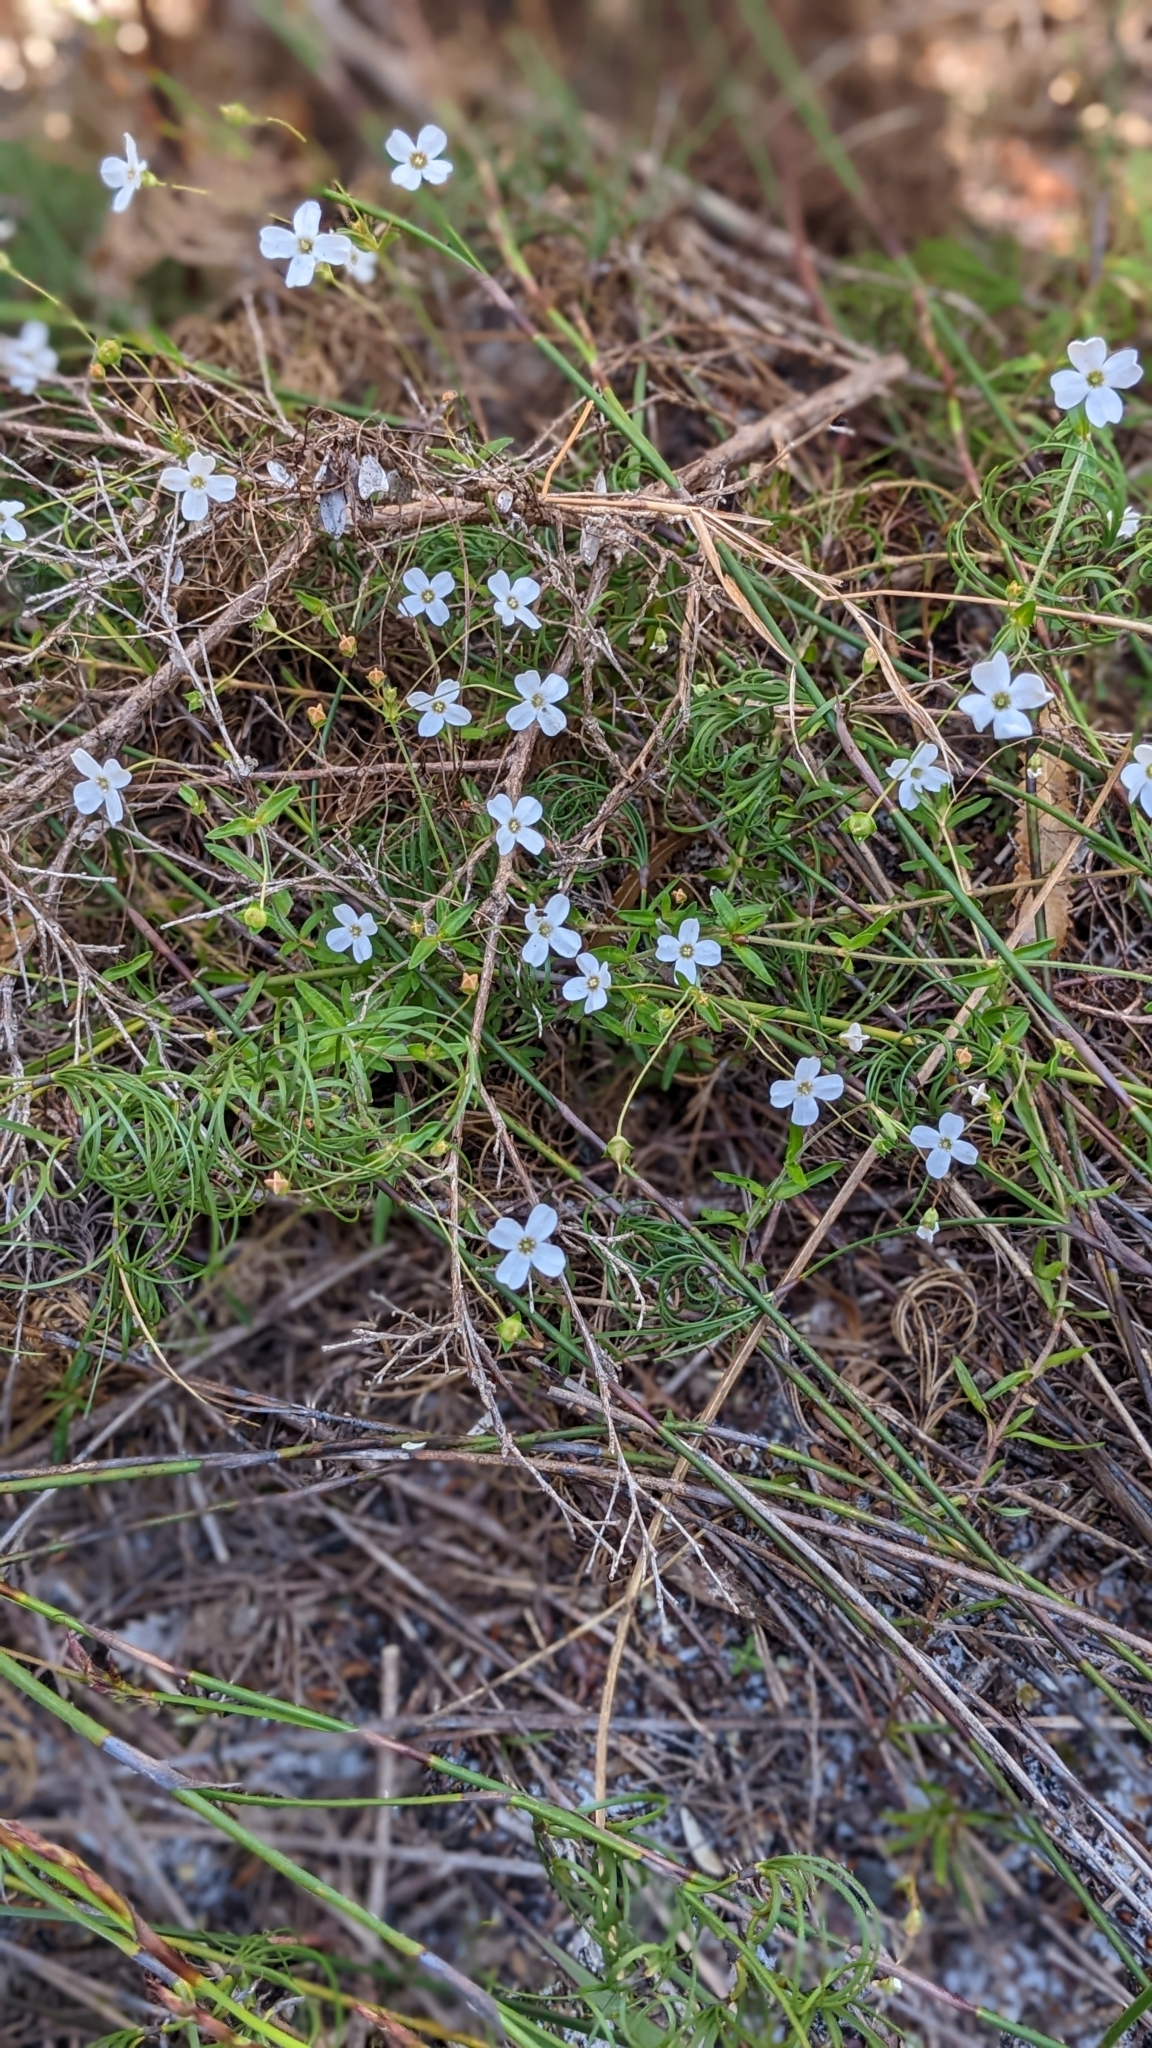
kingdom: Plantae
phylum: Tracheophyta
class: Magnoliopsida
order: Gentianales
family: Loganiaceae
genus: Mitrasacme
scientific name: Mitrasacme polymorpha
